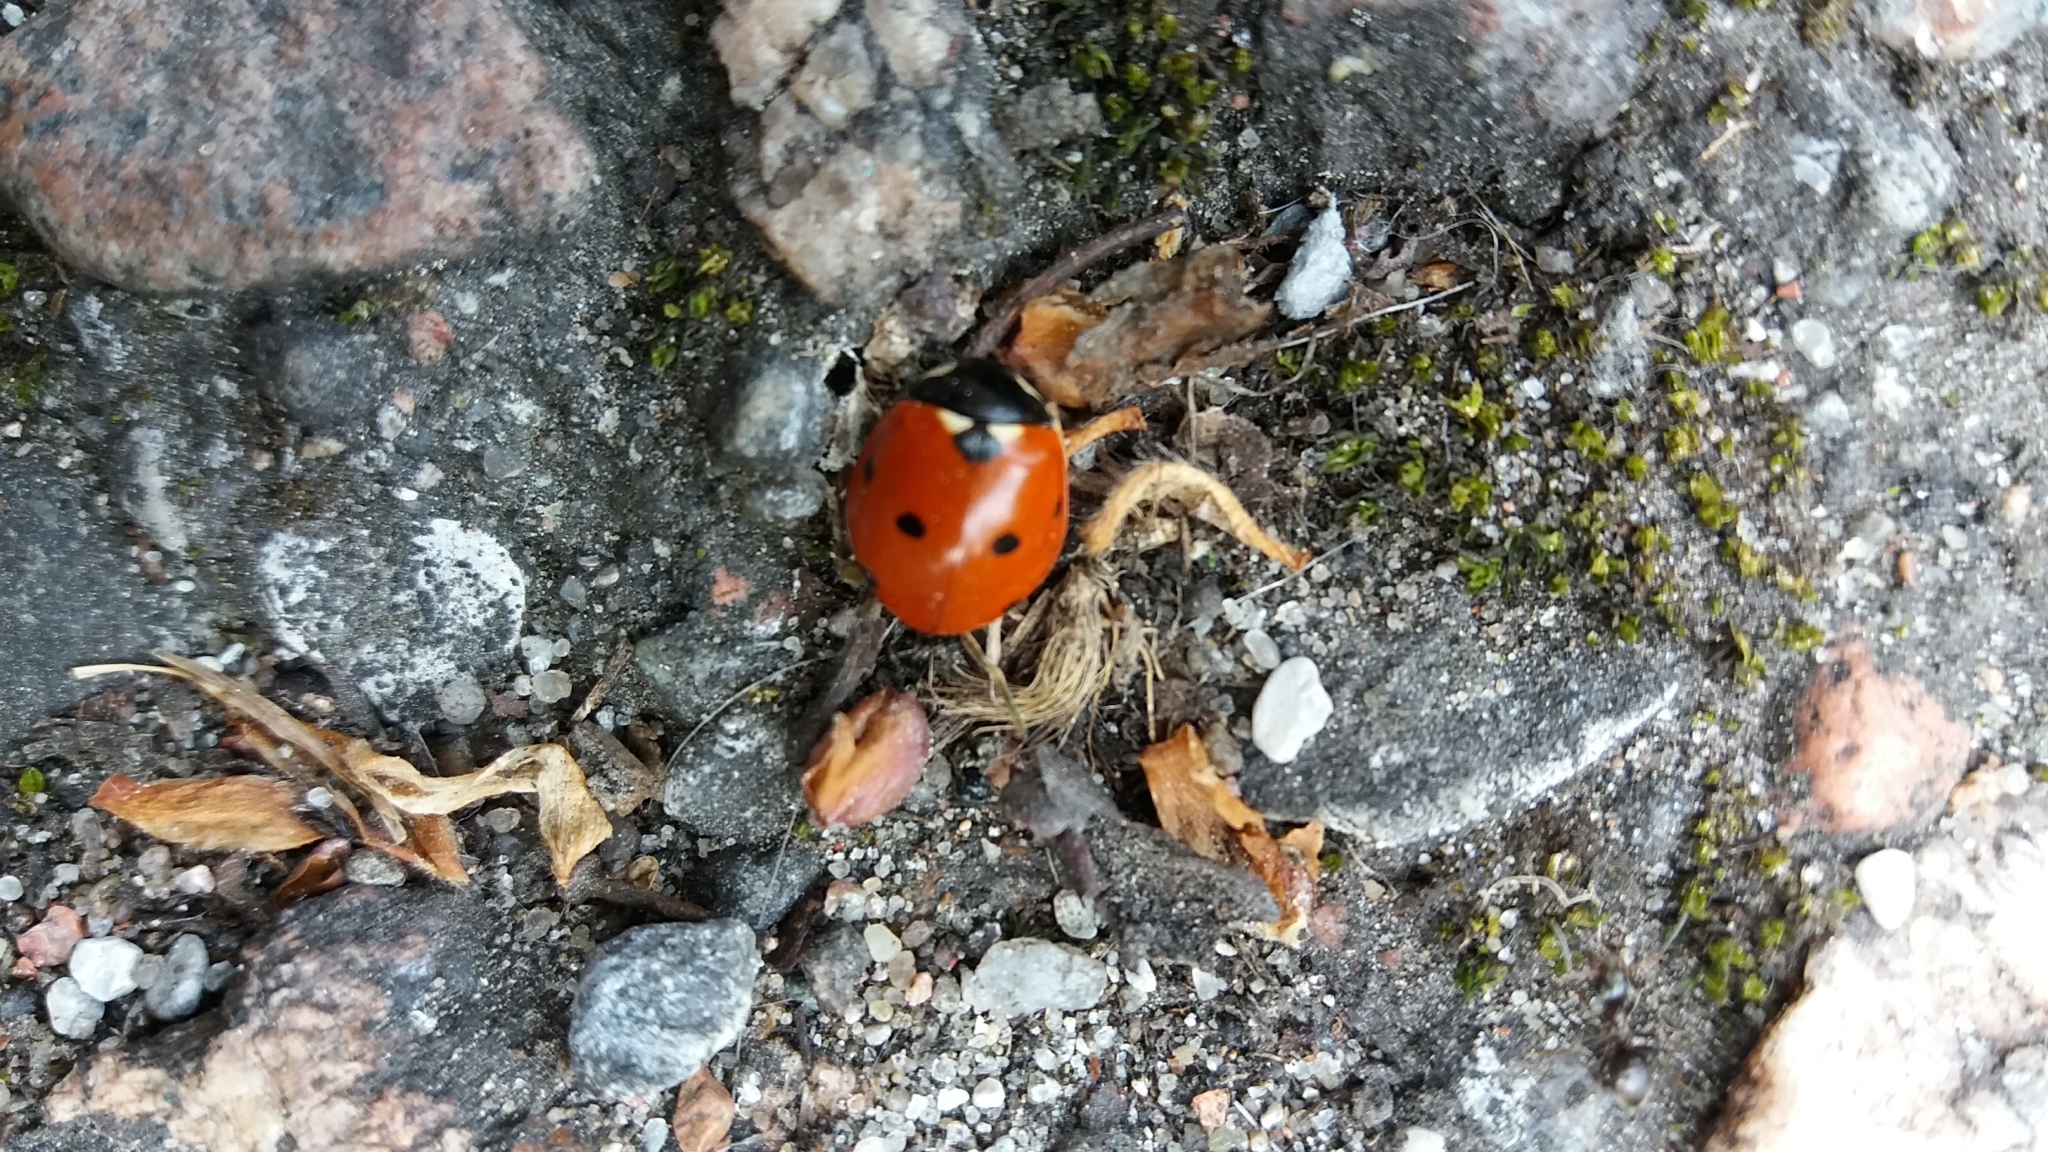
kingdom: Animalia
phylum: Arthropoda
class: Insecta
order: Coleoptera
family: Coccinellidae
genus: Coccinella
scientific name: Coccinella septempunctata
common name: Sevenspotted lady beetle
